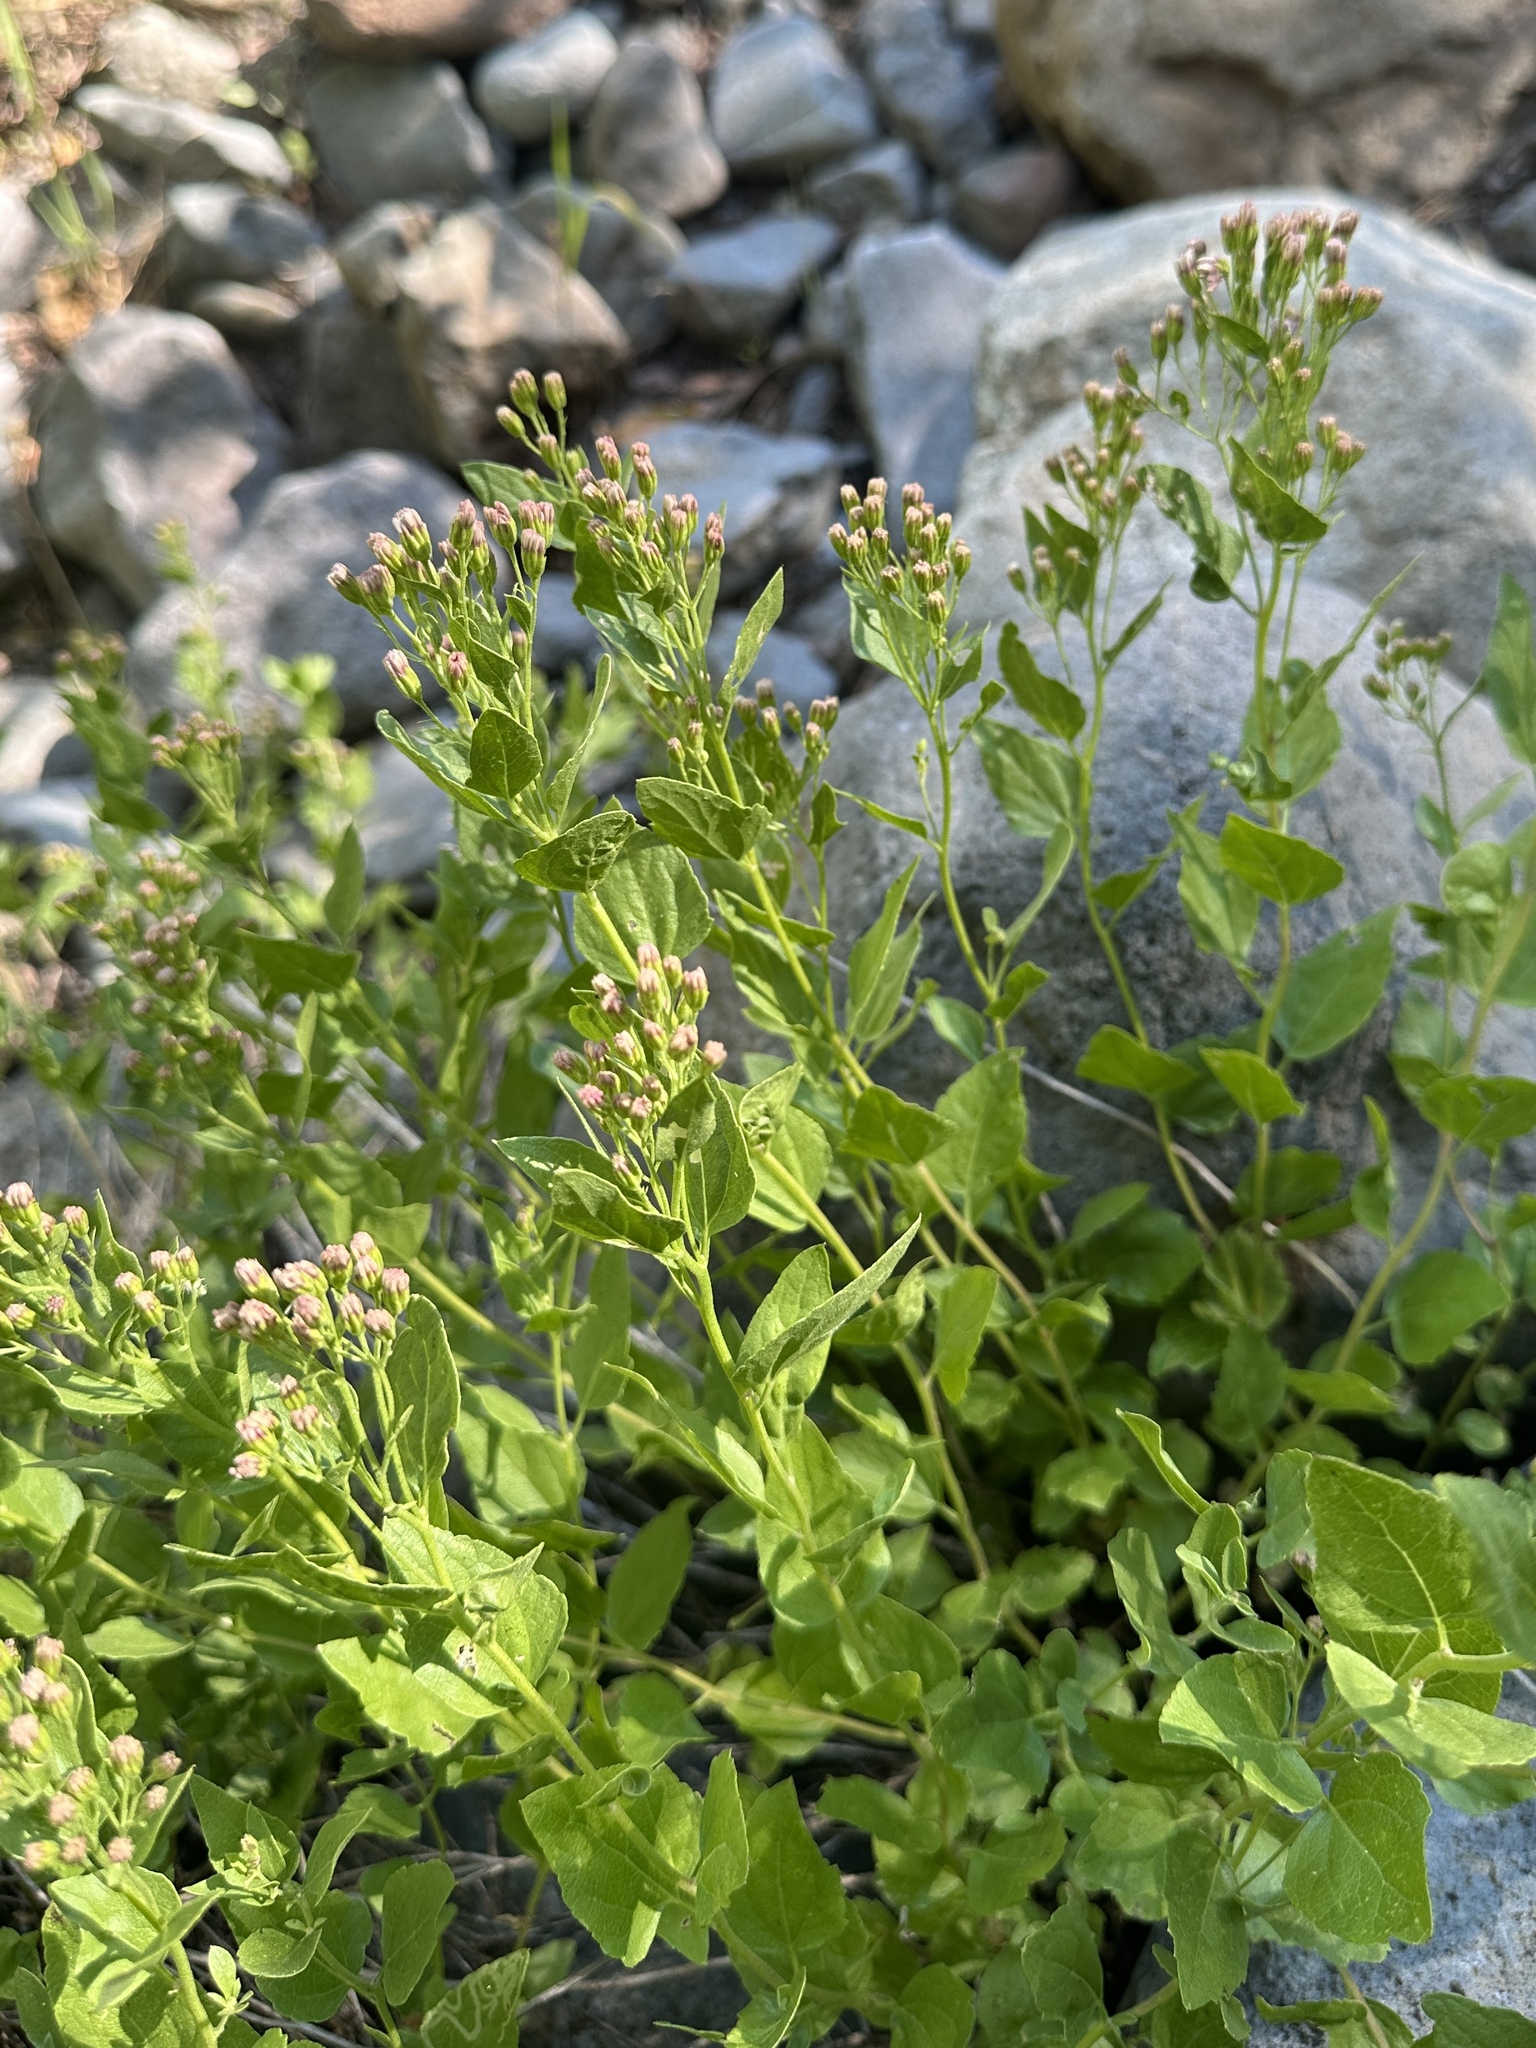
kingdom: Plantae
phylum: Tracheophyta
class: Magnoliopsida
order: Asterales
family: Asteraceae
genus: Ageratina
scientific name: Ageratina occidentalis
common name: Western snakeroot
